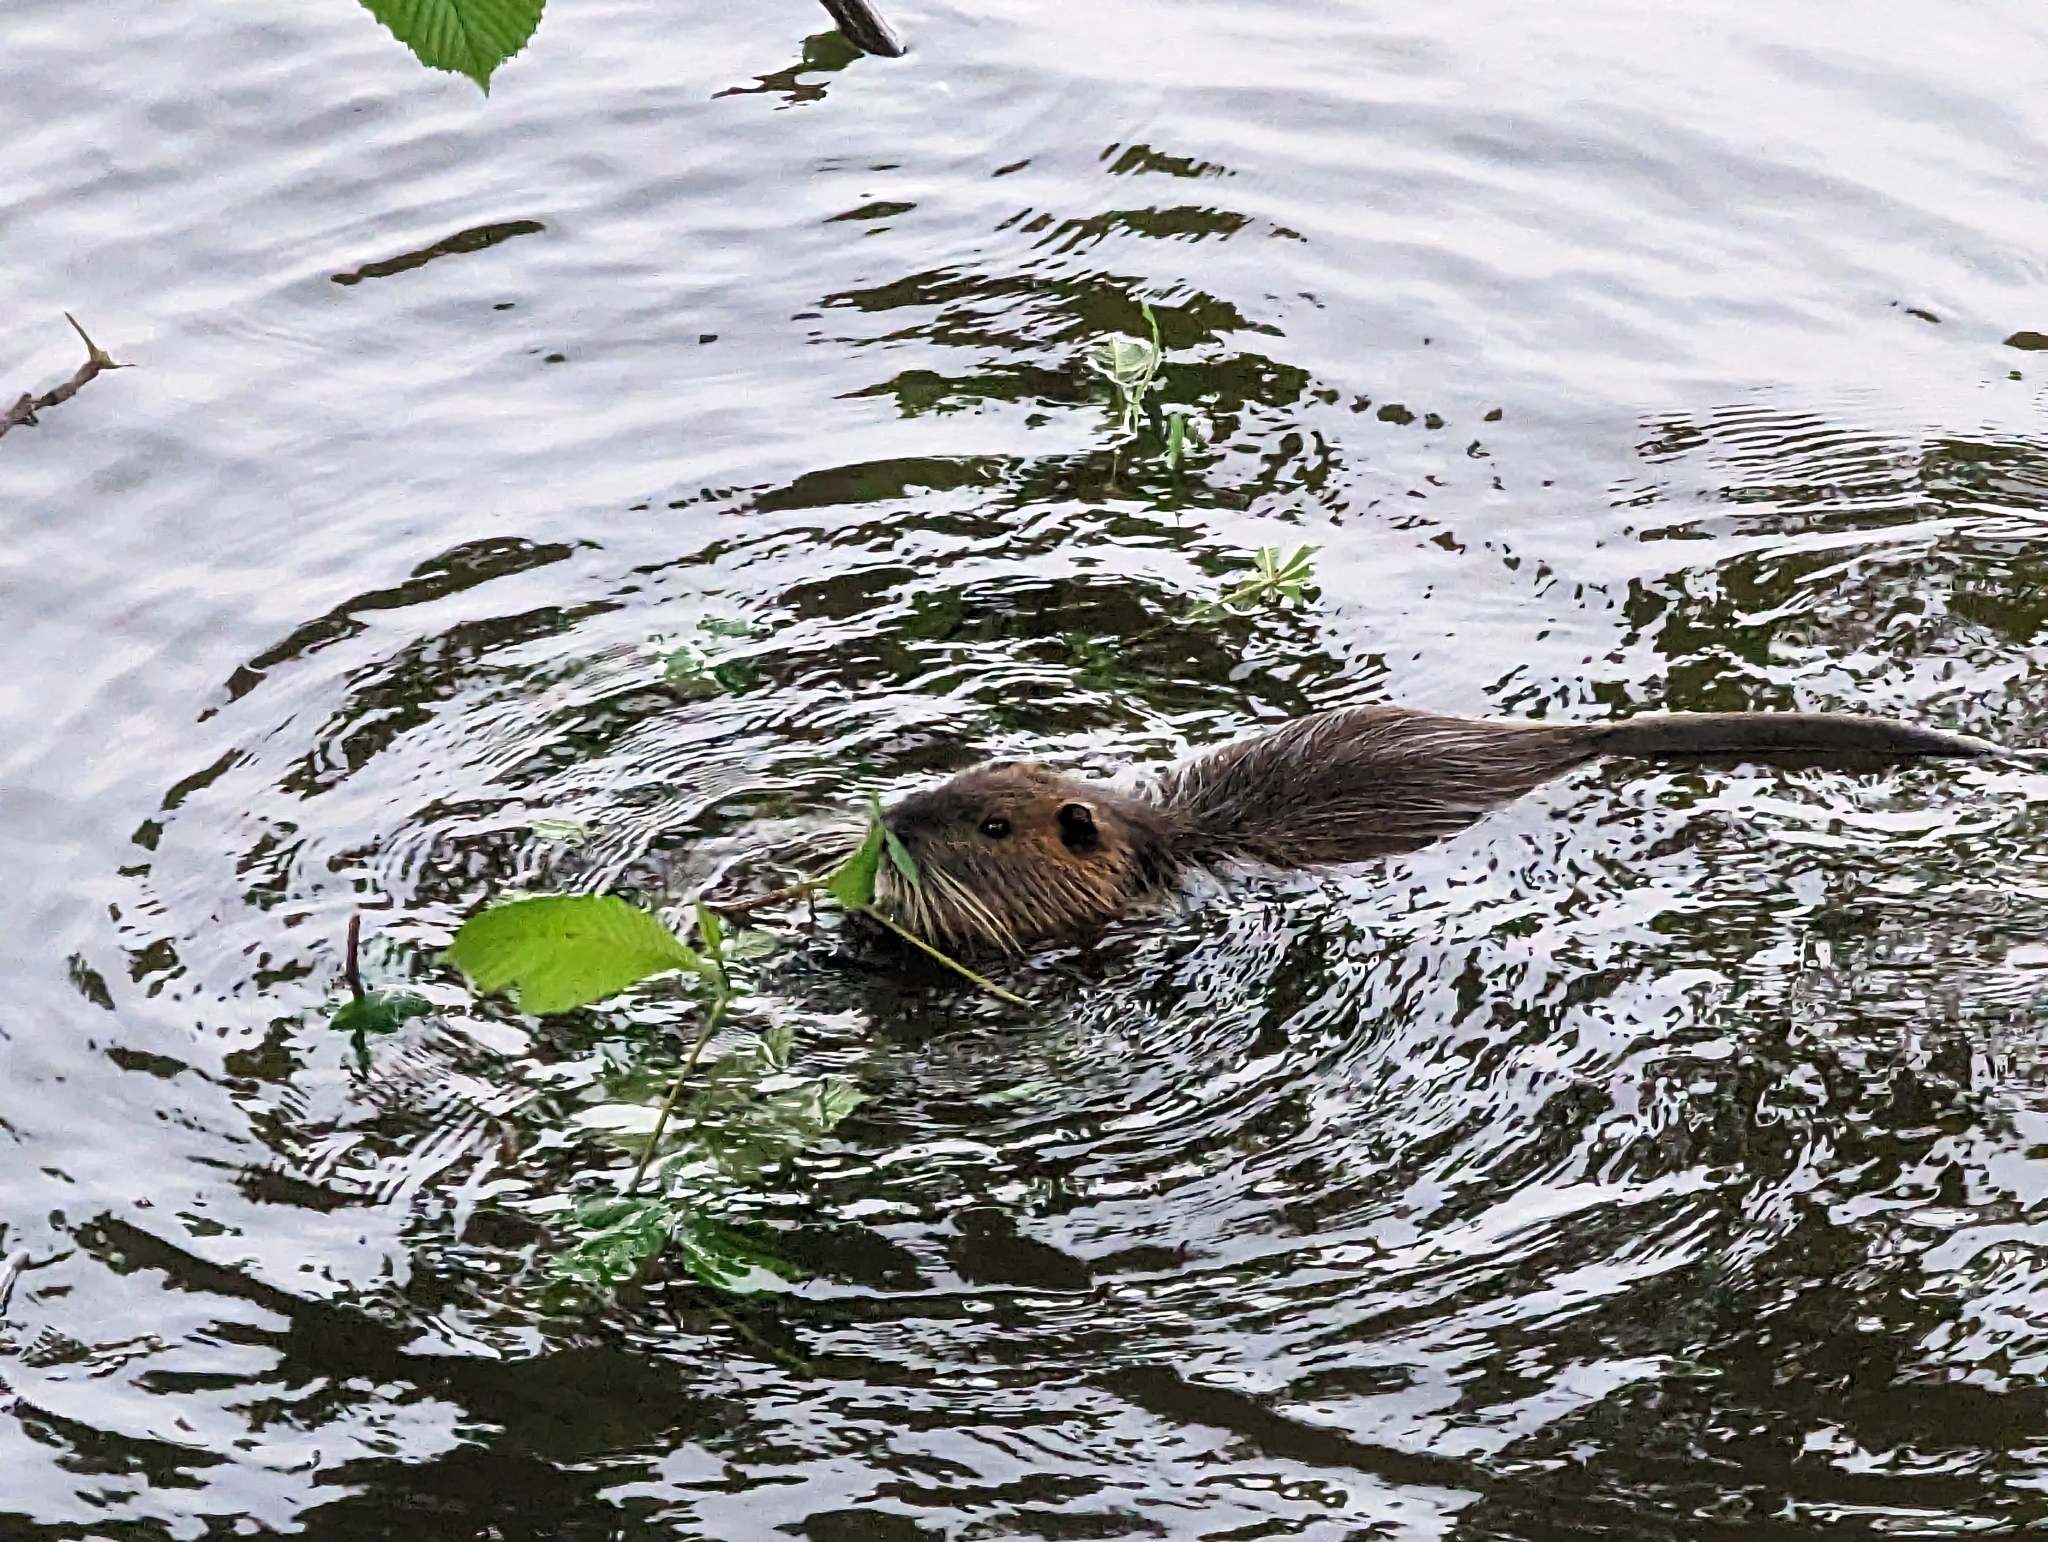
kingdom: Animalia
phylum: Chordata
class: Mammalia
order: Rodentia
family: Myocastoridae
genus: Myocastor
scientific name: Myocastor coypus
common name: Coypu
